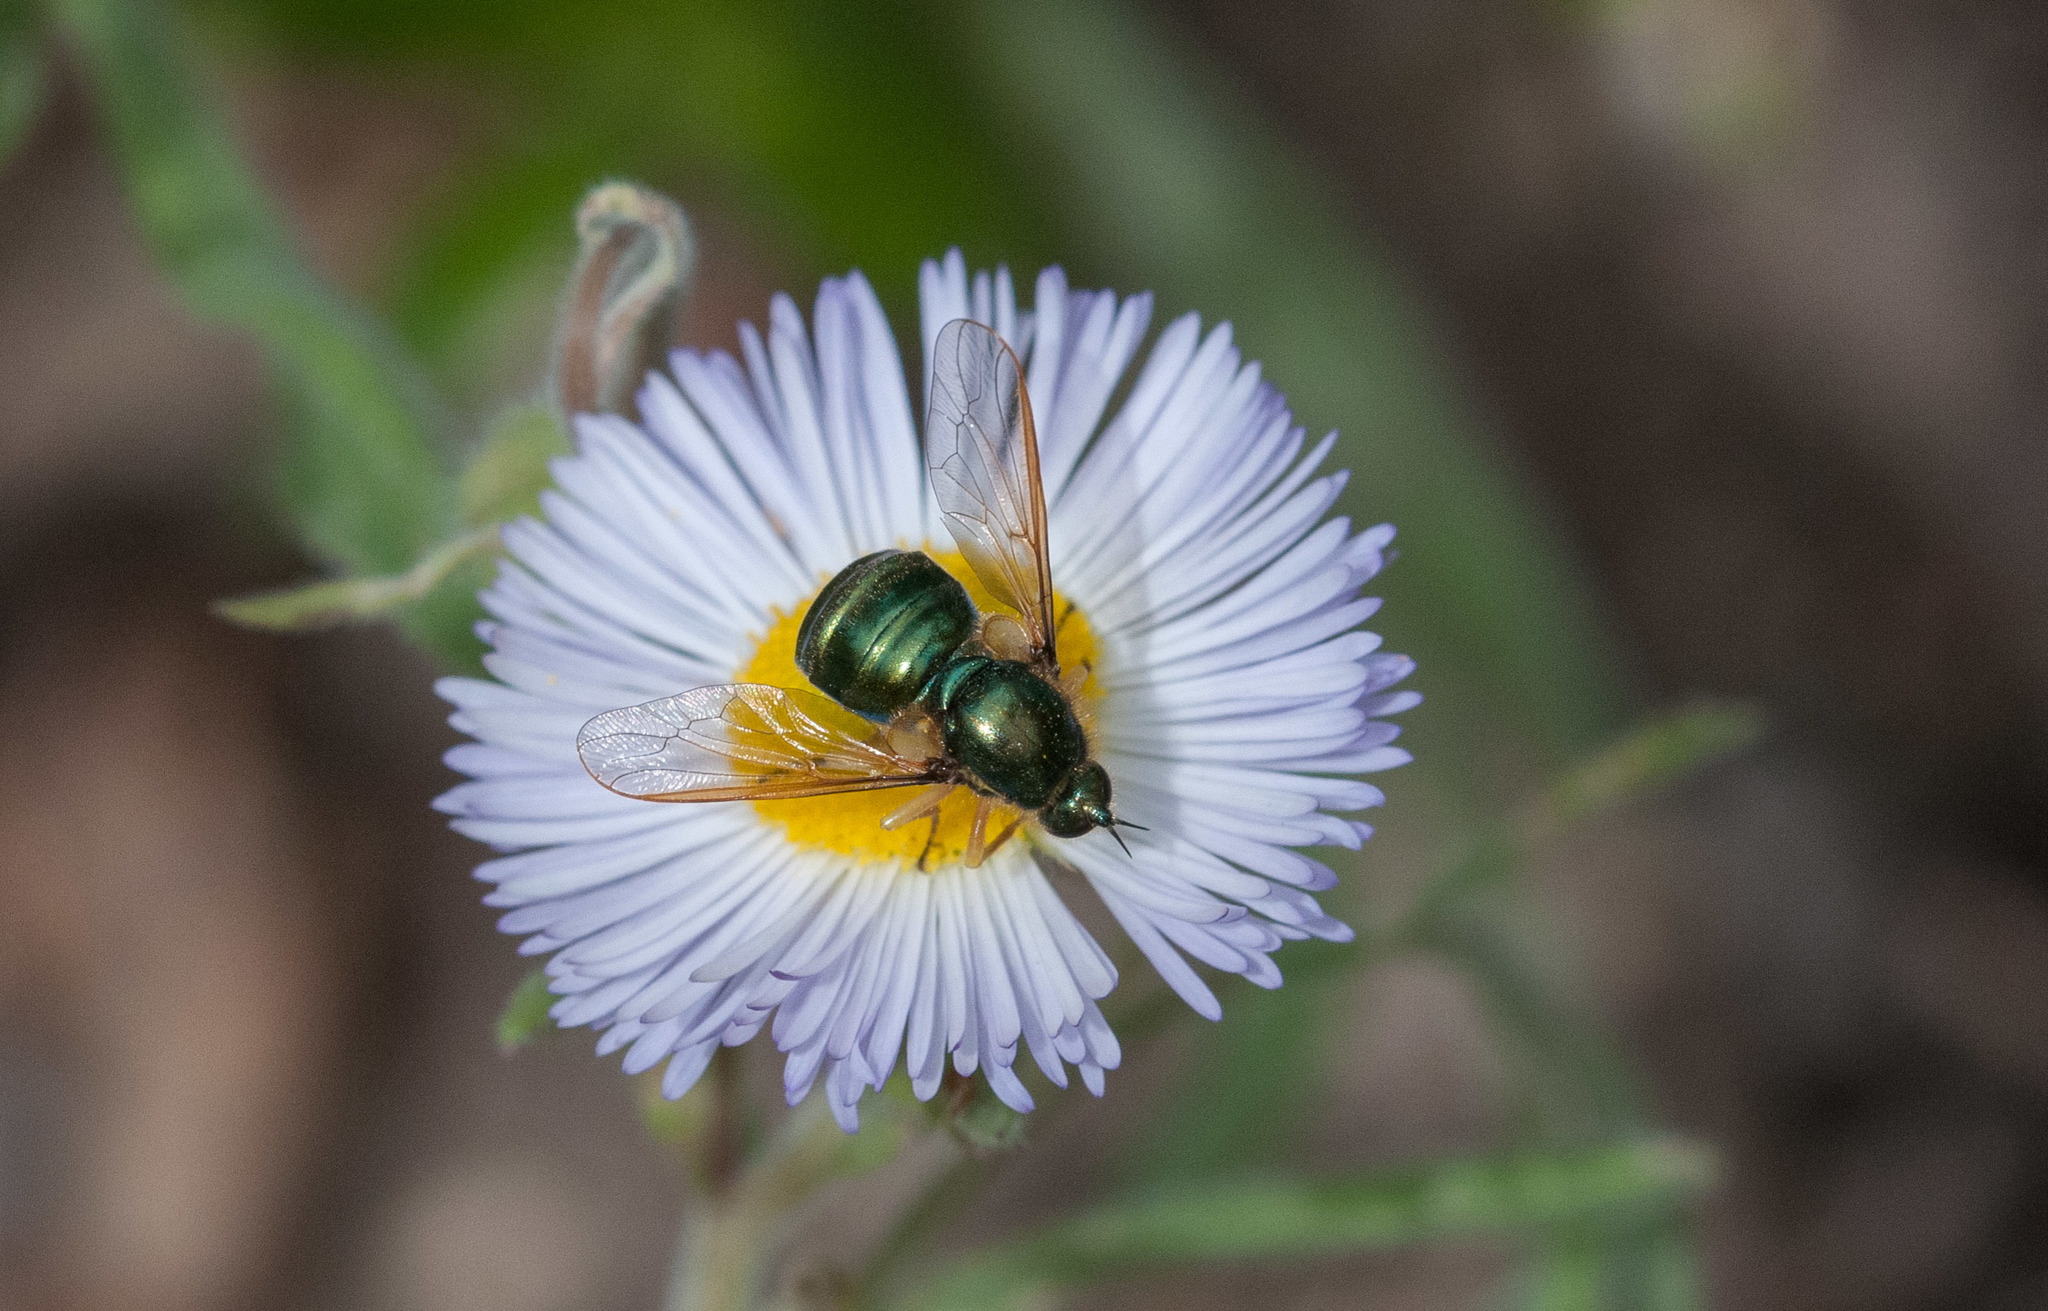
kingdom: Animalia
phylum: Arthropoda
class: Insecta
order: Diptera
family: Acroceridae
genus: Eulonchus
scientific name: Eulonchus sapphirinus
